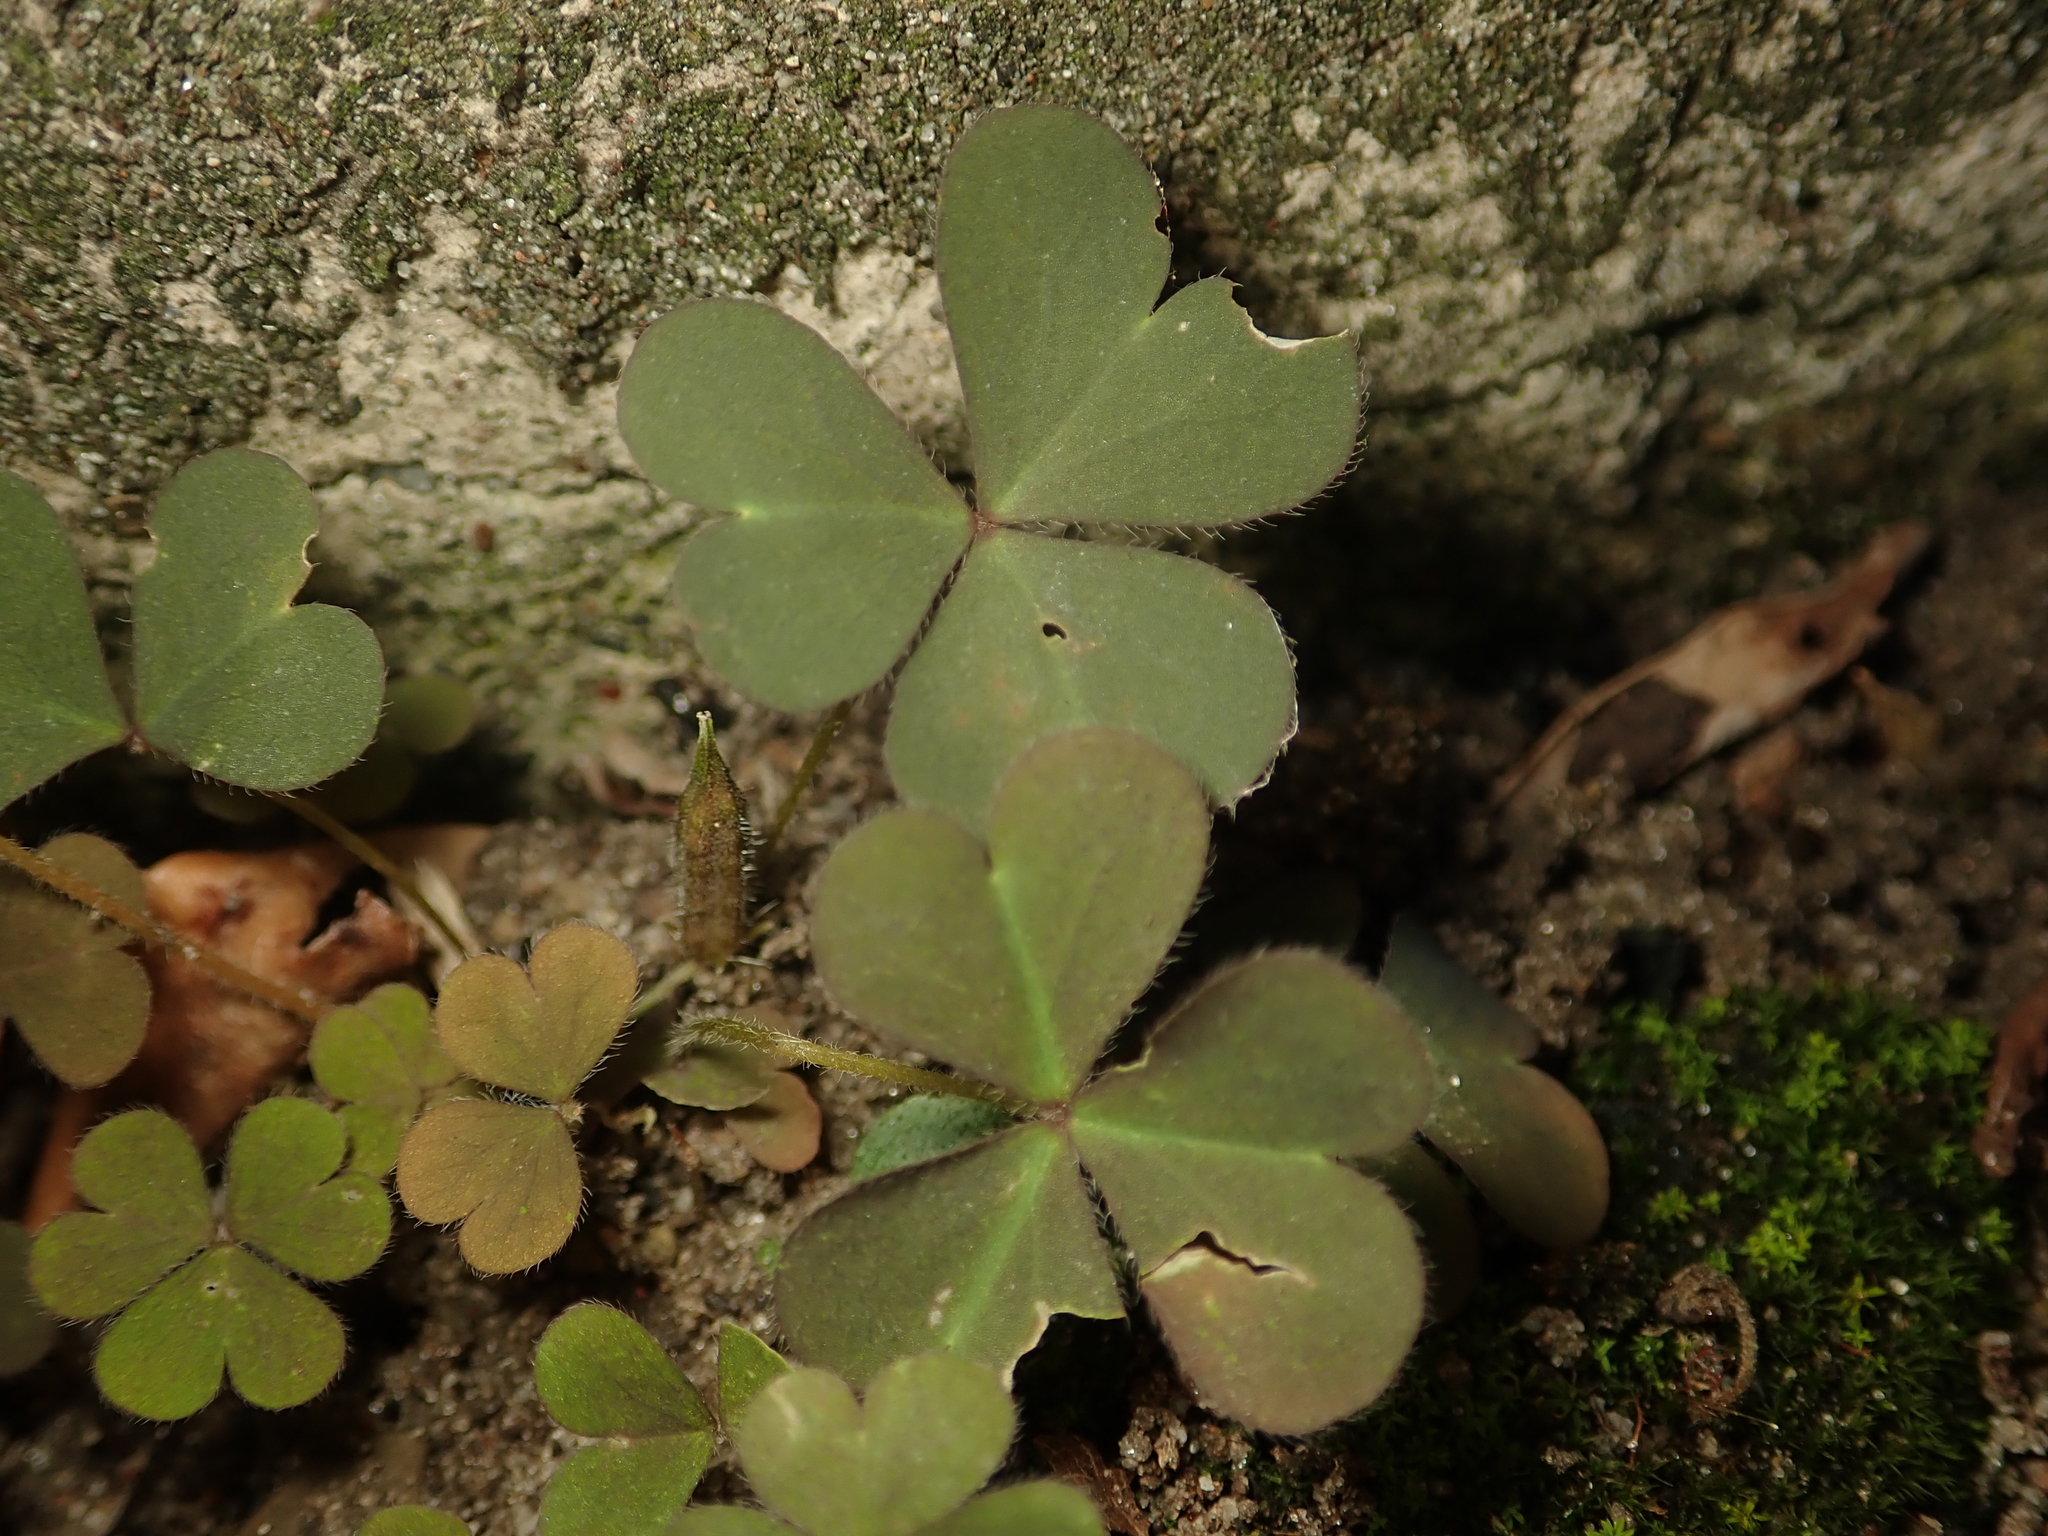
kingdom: Plantae
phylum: Tracheophyta
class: Magnoliopsida
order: Oxalidales
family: Oxalidaceae
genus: Oxalis
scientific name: Oxalis corniculata
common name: Procumbent yellow-sorrel
